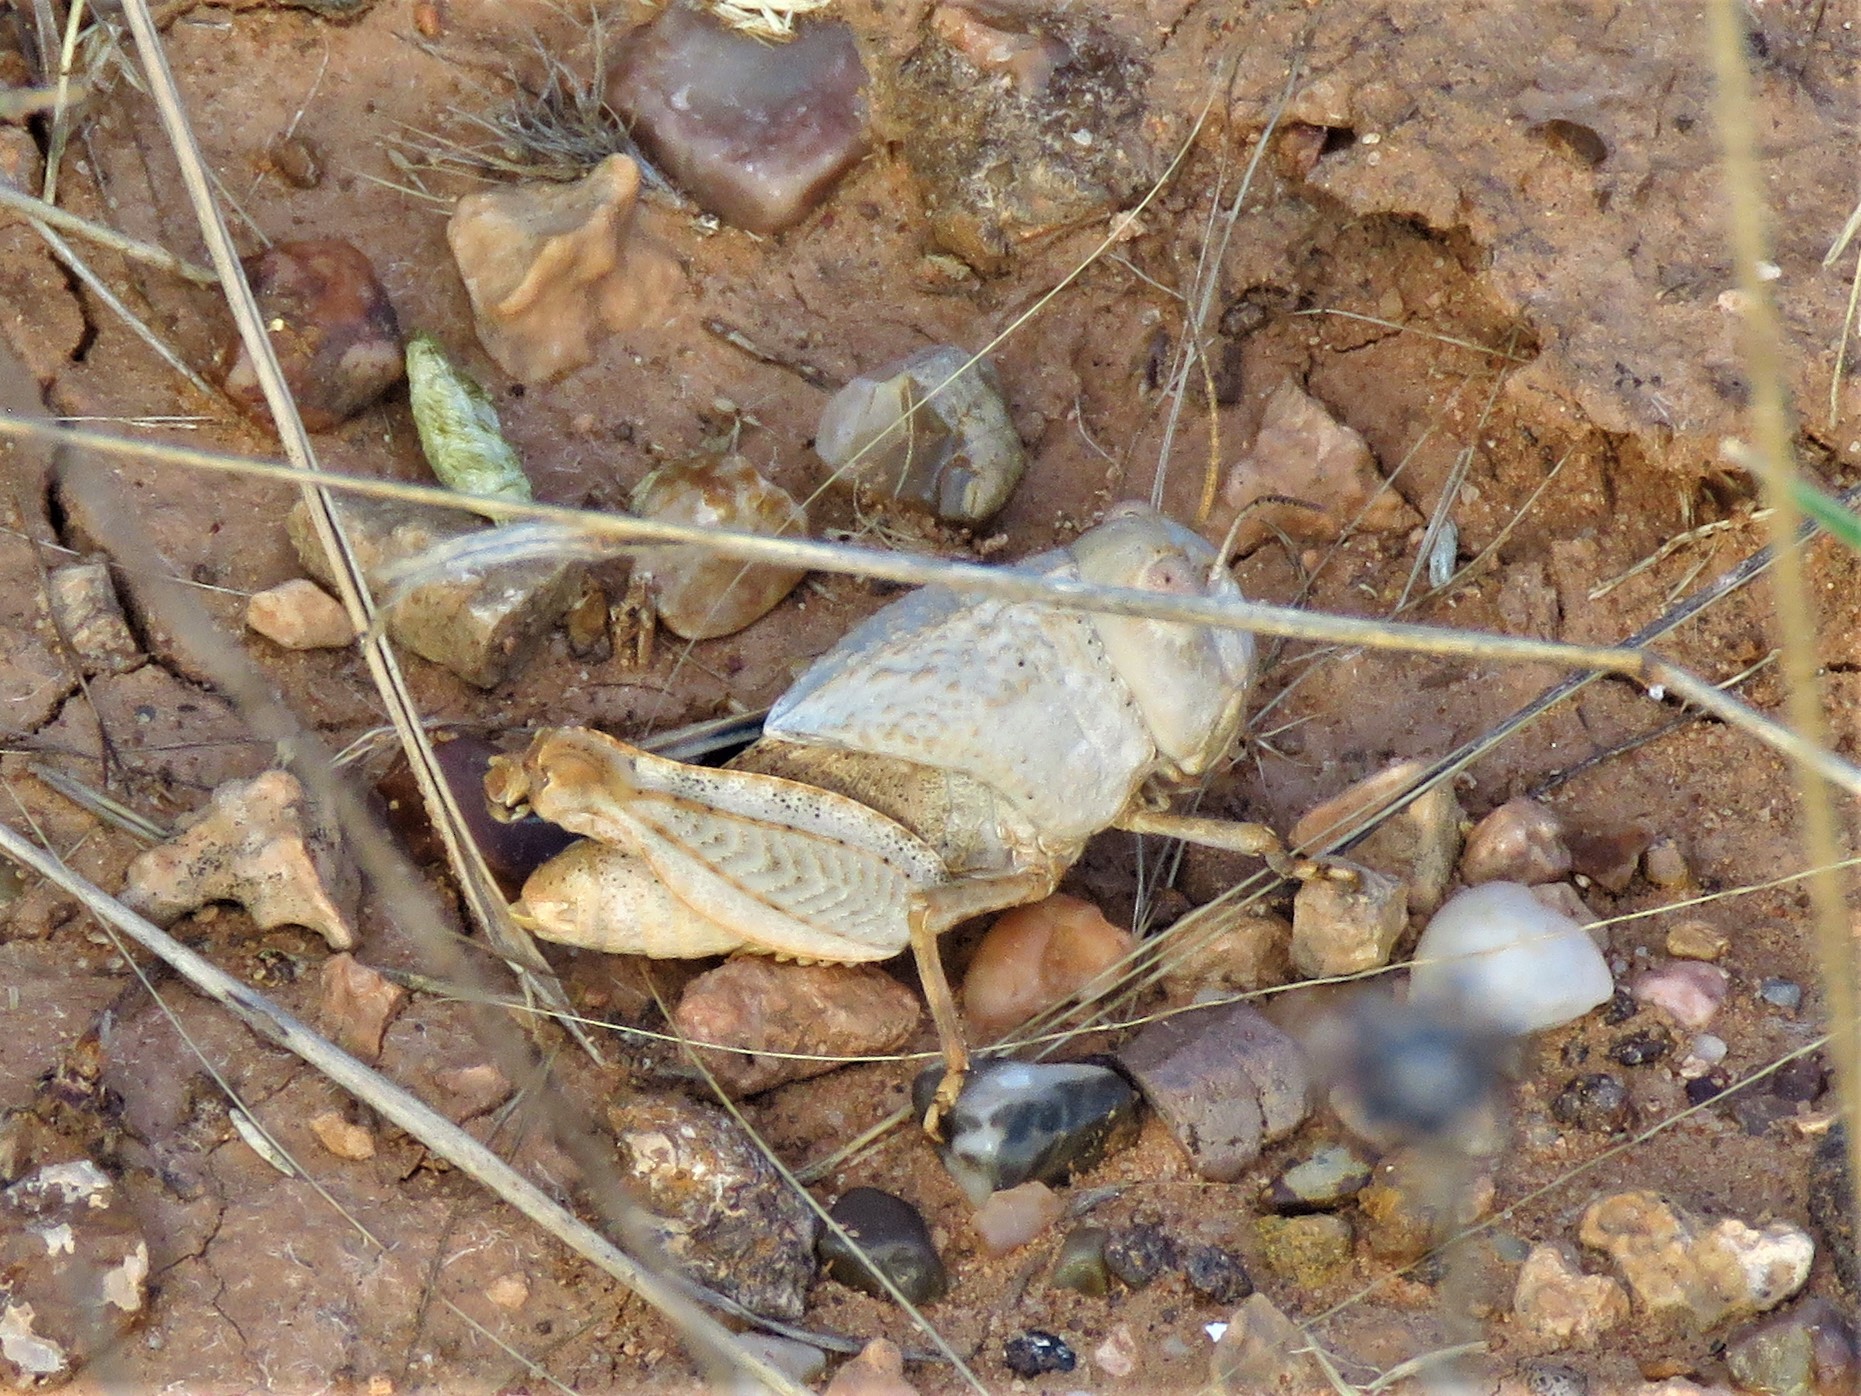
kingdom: Animalia
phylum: Arthropoda
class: Insecta
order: Orthoptera
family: Acrididae
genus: Leprus
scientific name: Leprus wheelerii
